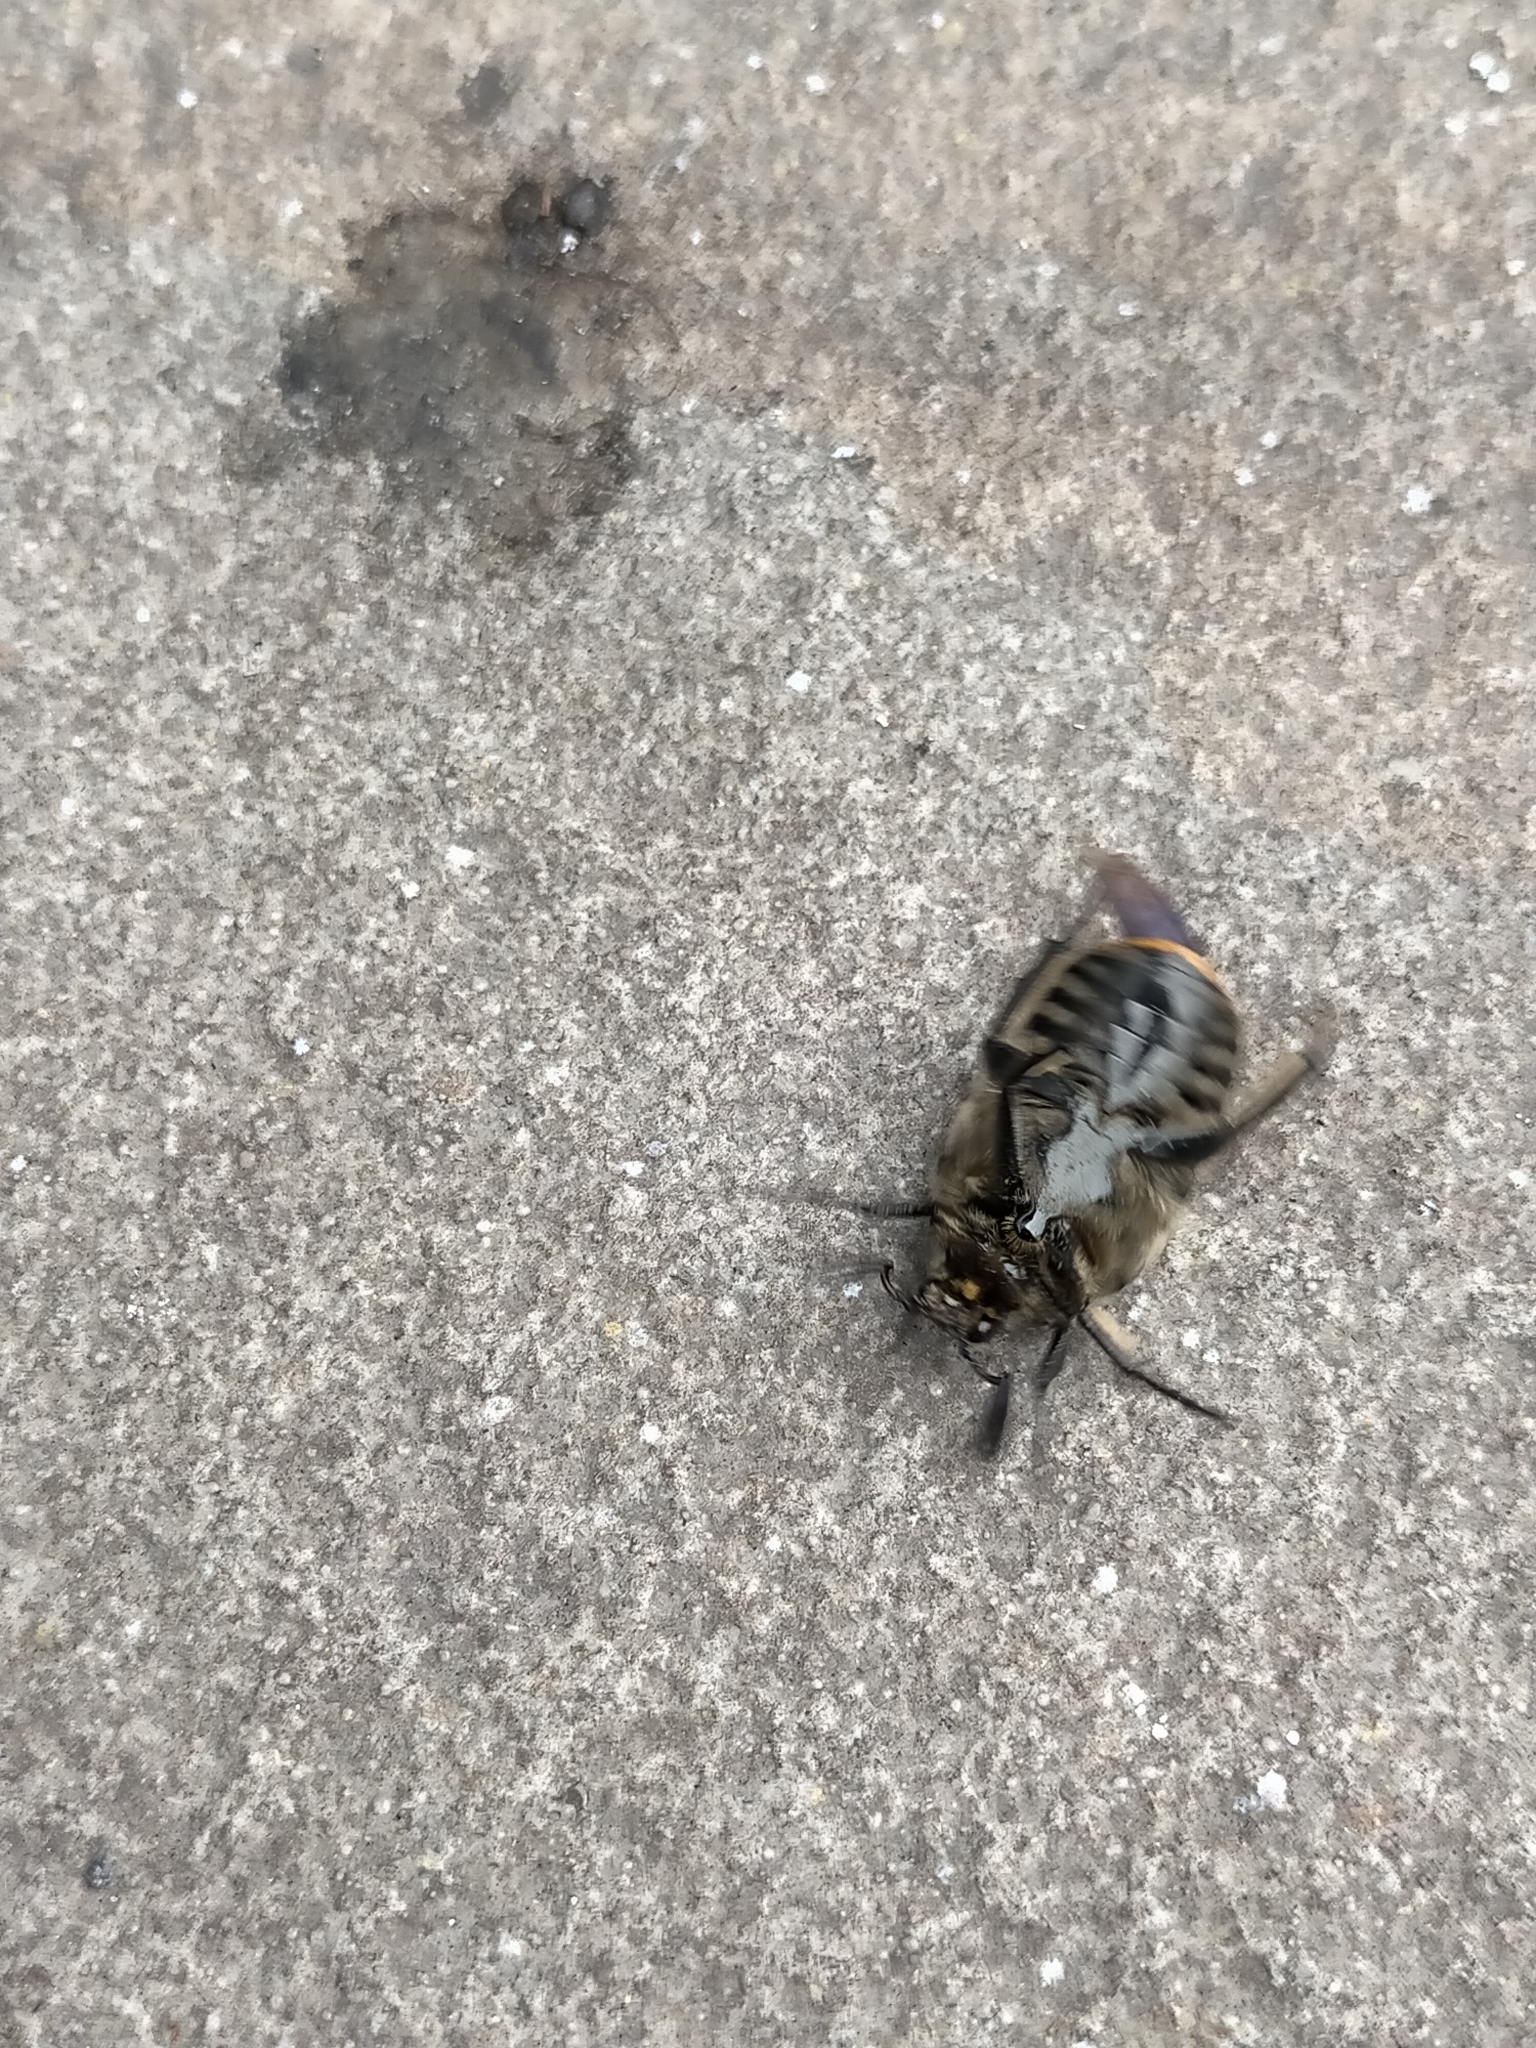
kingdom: Animalia
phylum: Arthropoda
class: Insecta
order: Coleoptera
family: Scarabaeidae
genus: Chondropyga
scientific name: Chondropyga dorsalis
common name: Cowboy beetle
